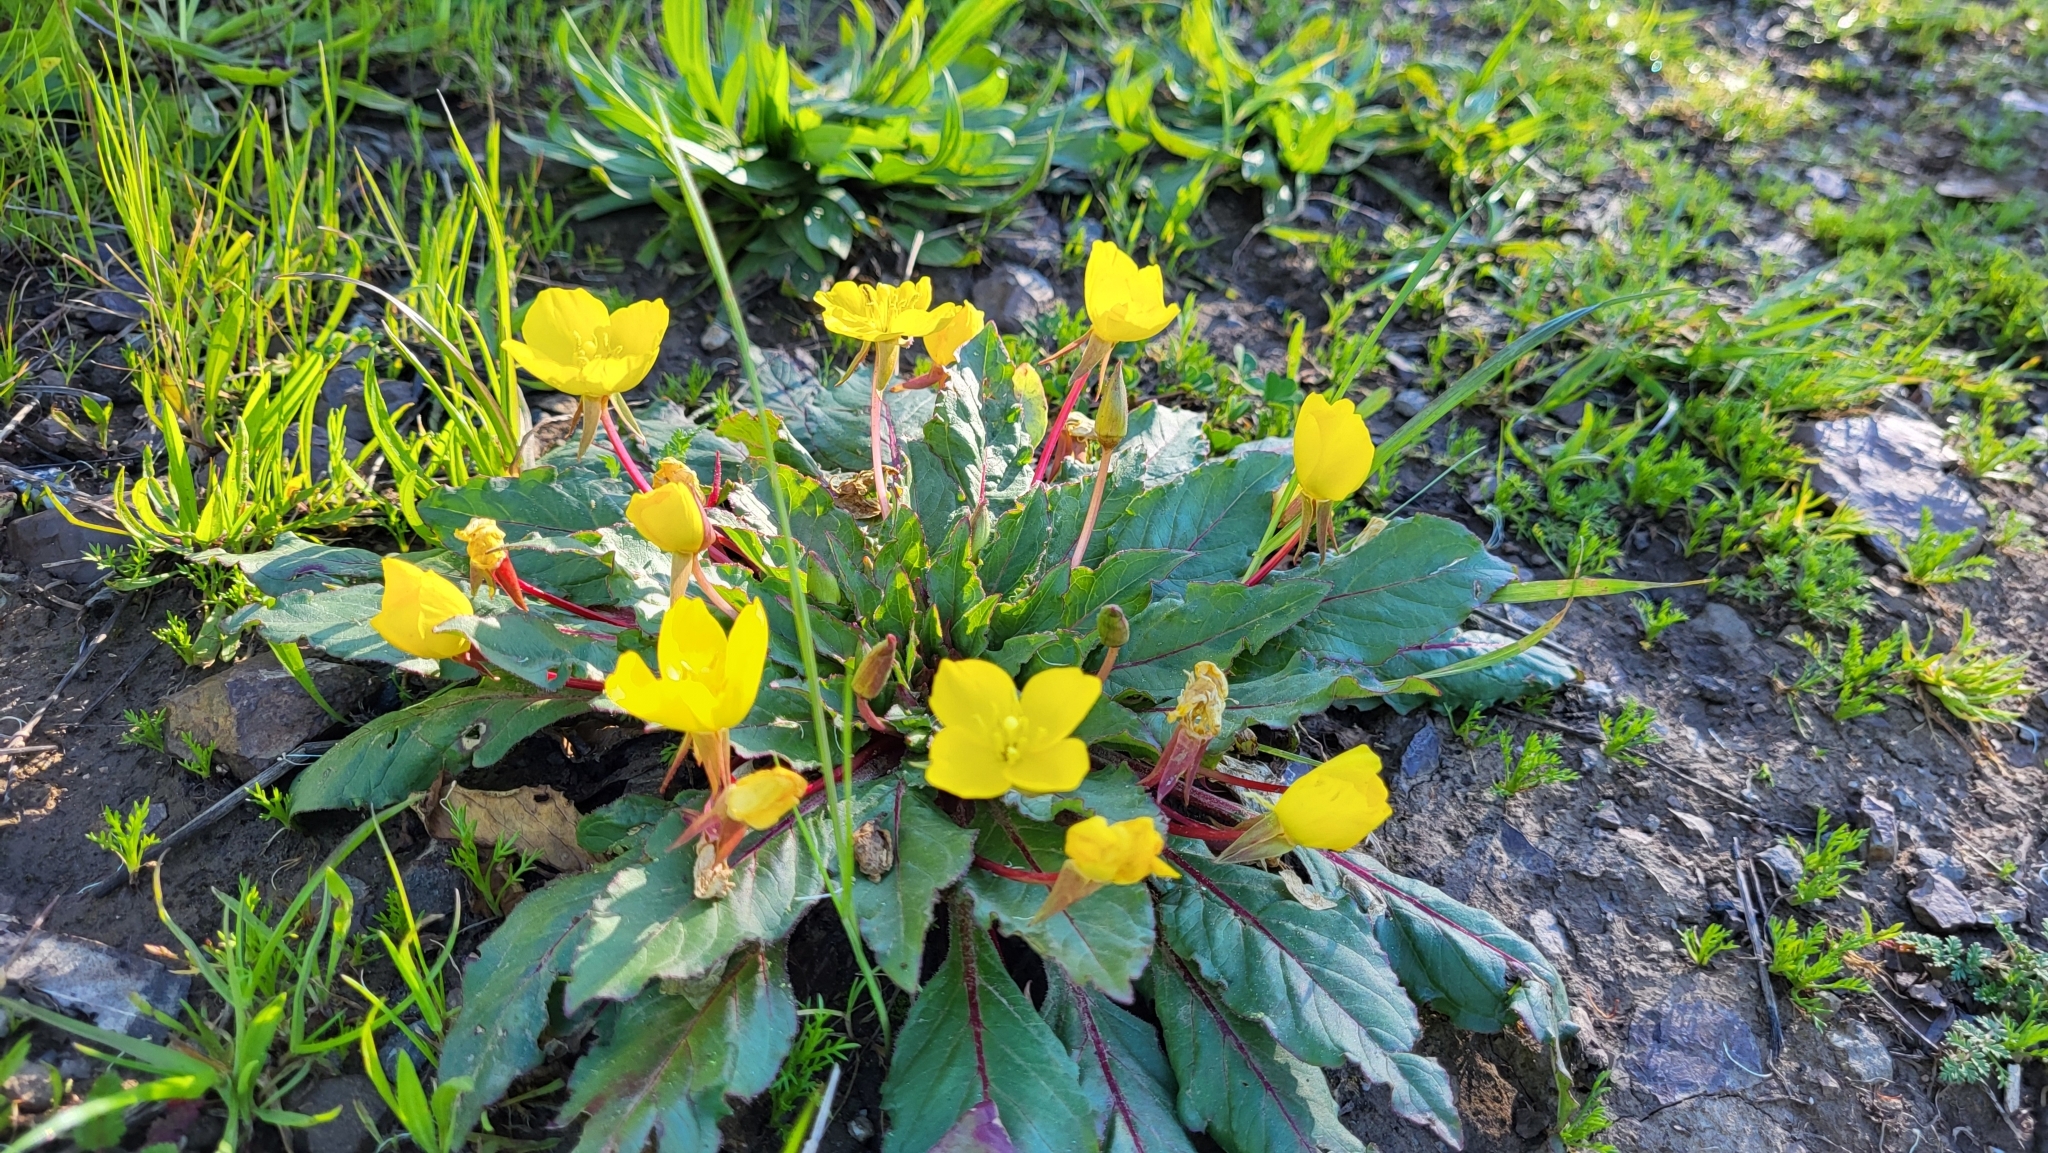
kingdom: Plantae
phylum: Tracheophyta
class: Magnoliopsida
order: Myrtales
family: Onagraceae
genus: Taraxia
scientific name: Taraxia ovata
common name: Goldeneggs
